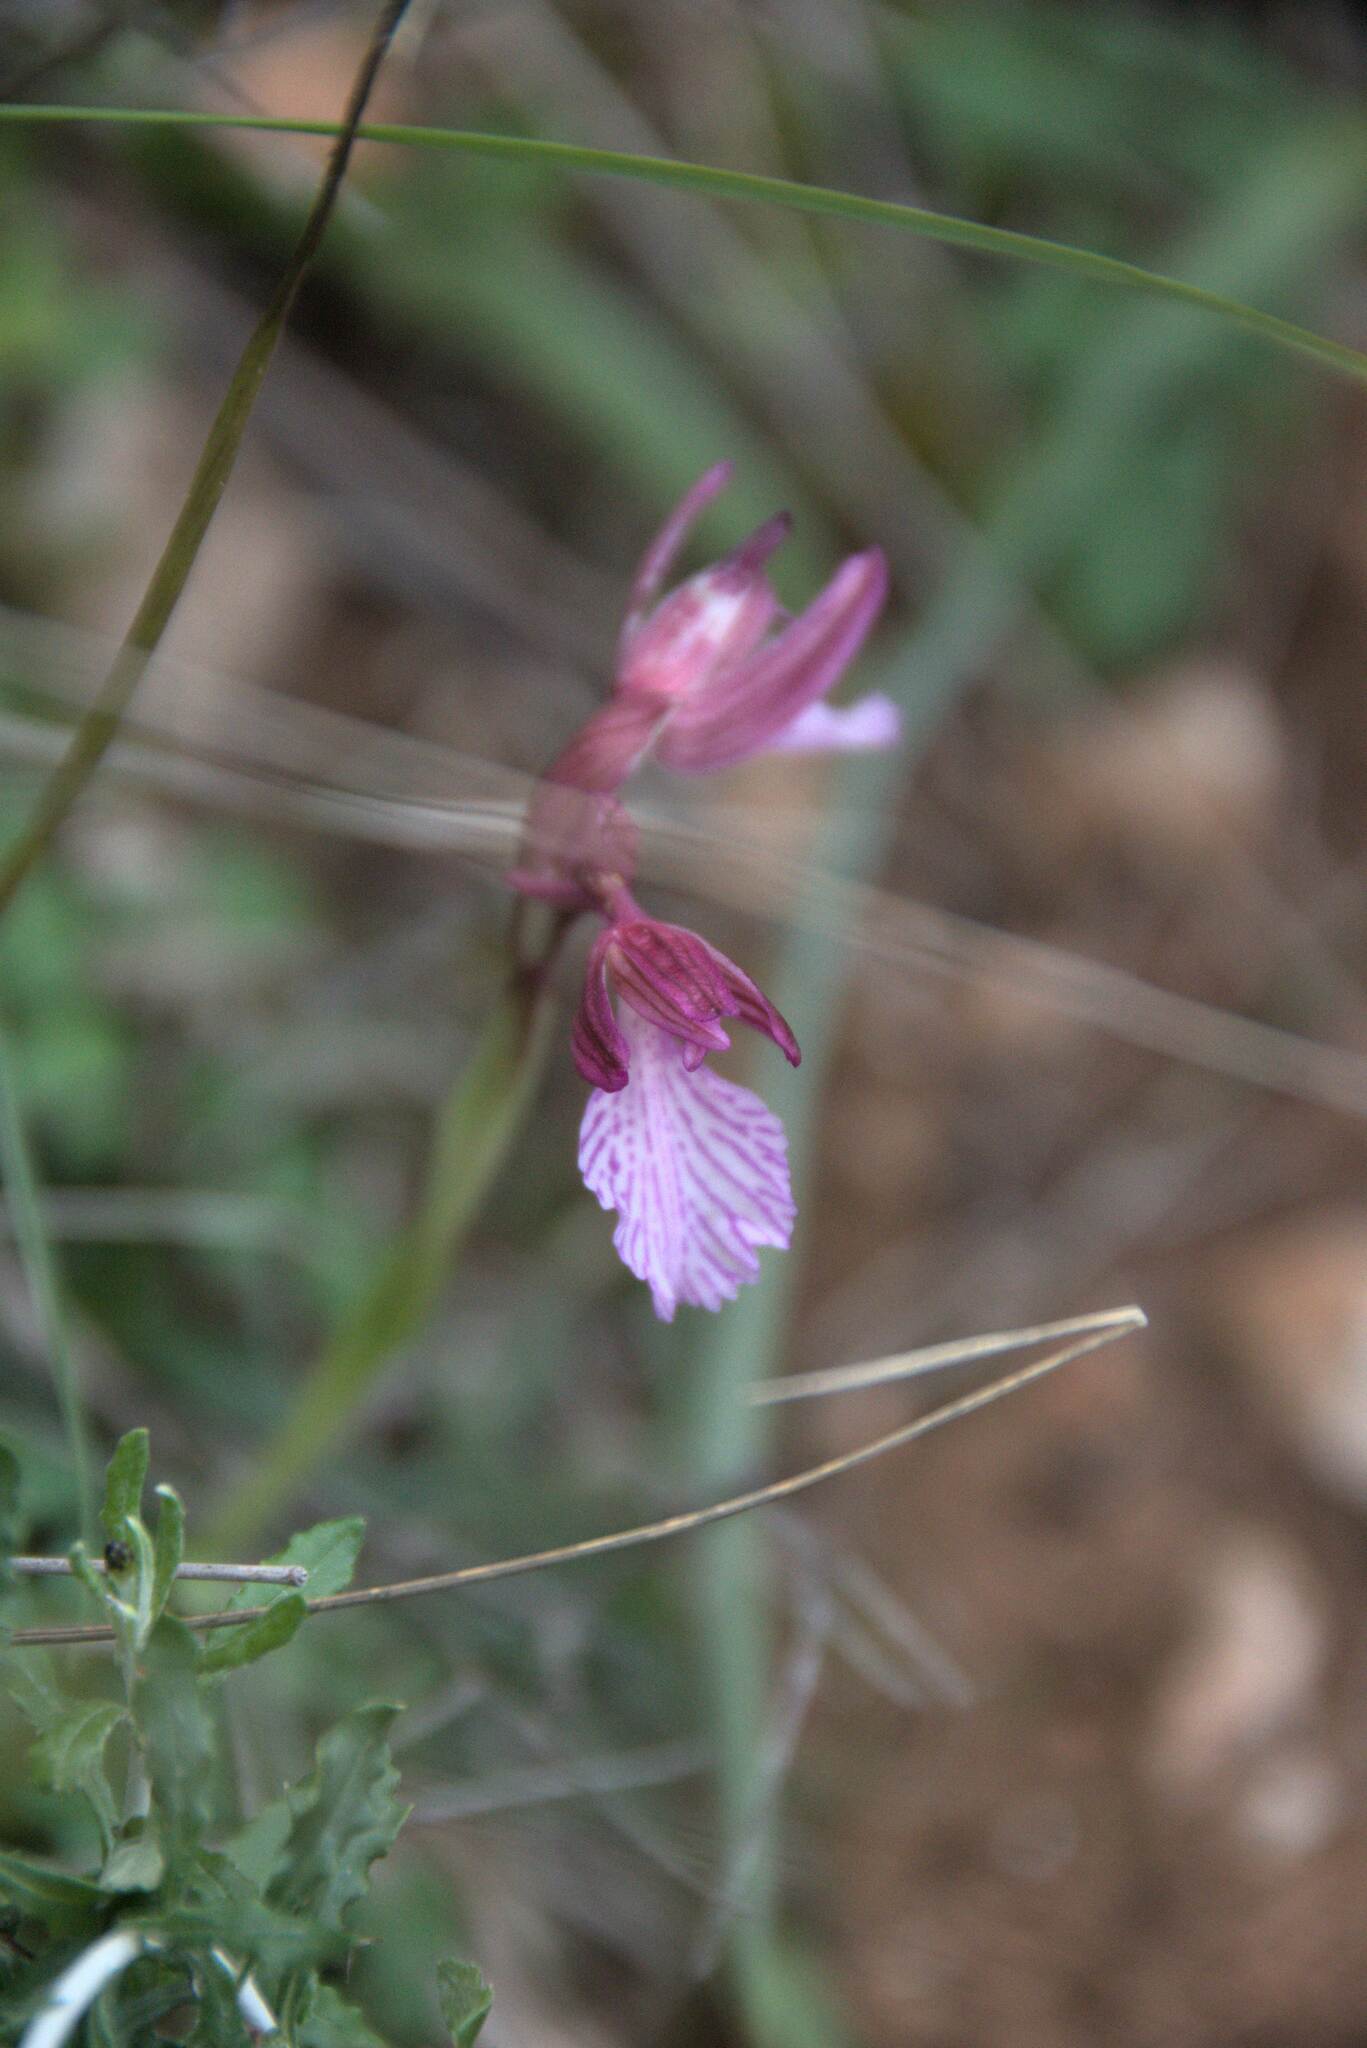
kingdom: Plantae
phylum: Tracheophyta
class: Liliopsida
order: Asparagales
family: Orchidaceae
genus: Anacamptis
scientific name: Anacamptis papilionacea
